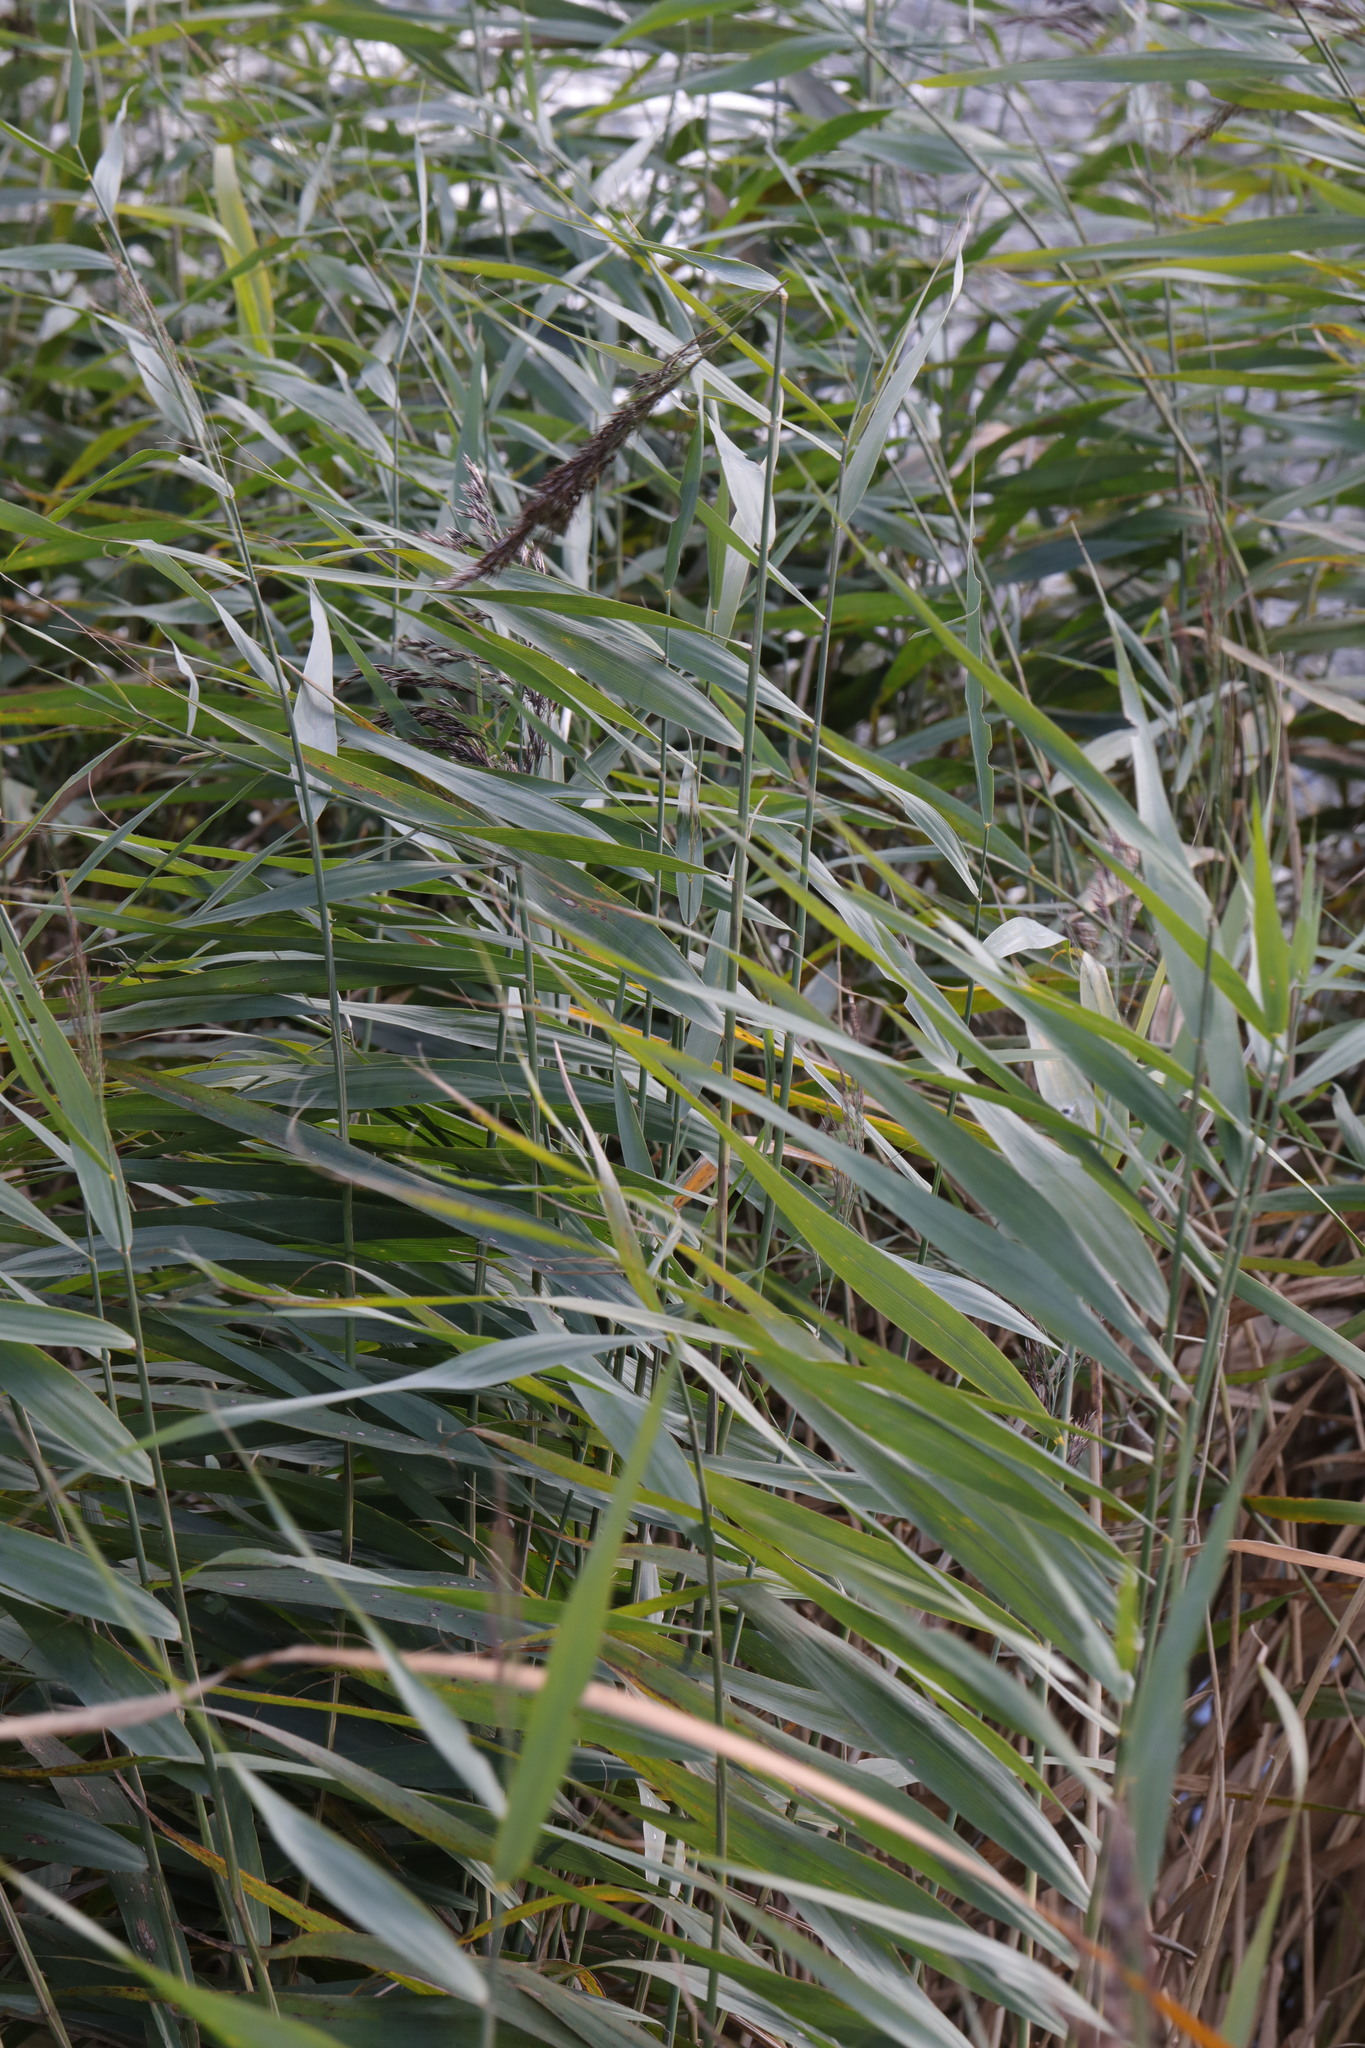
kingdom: Plantae
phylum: Tracheophyta
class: Liliopsida
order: Poales
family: Poaceae
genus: Phragmites
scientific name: Phragmites australis
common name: Common reed
